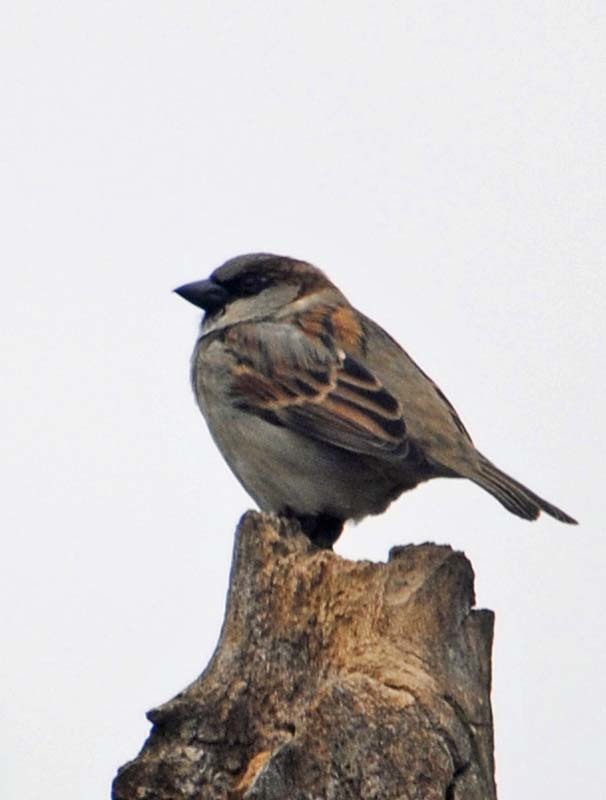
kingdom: Animalia
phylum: Chordata
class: Aves
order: Passeriformes
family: Passeridae
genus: Passer
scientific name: Passer domesticus
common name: House sparrow
